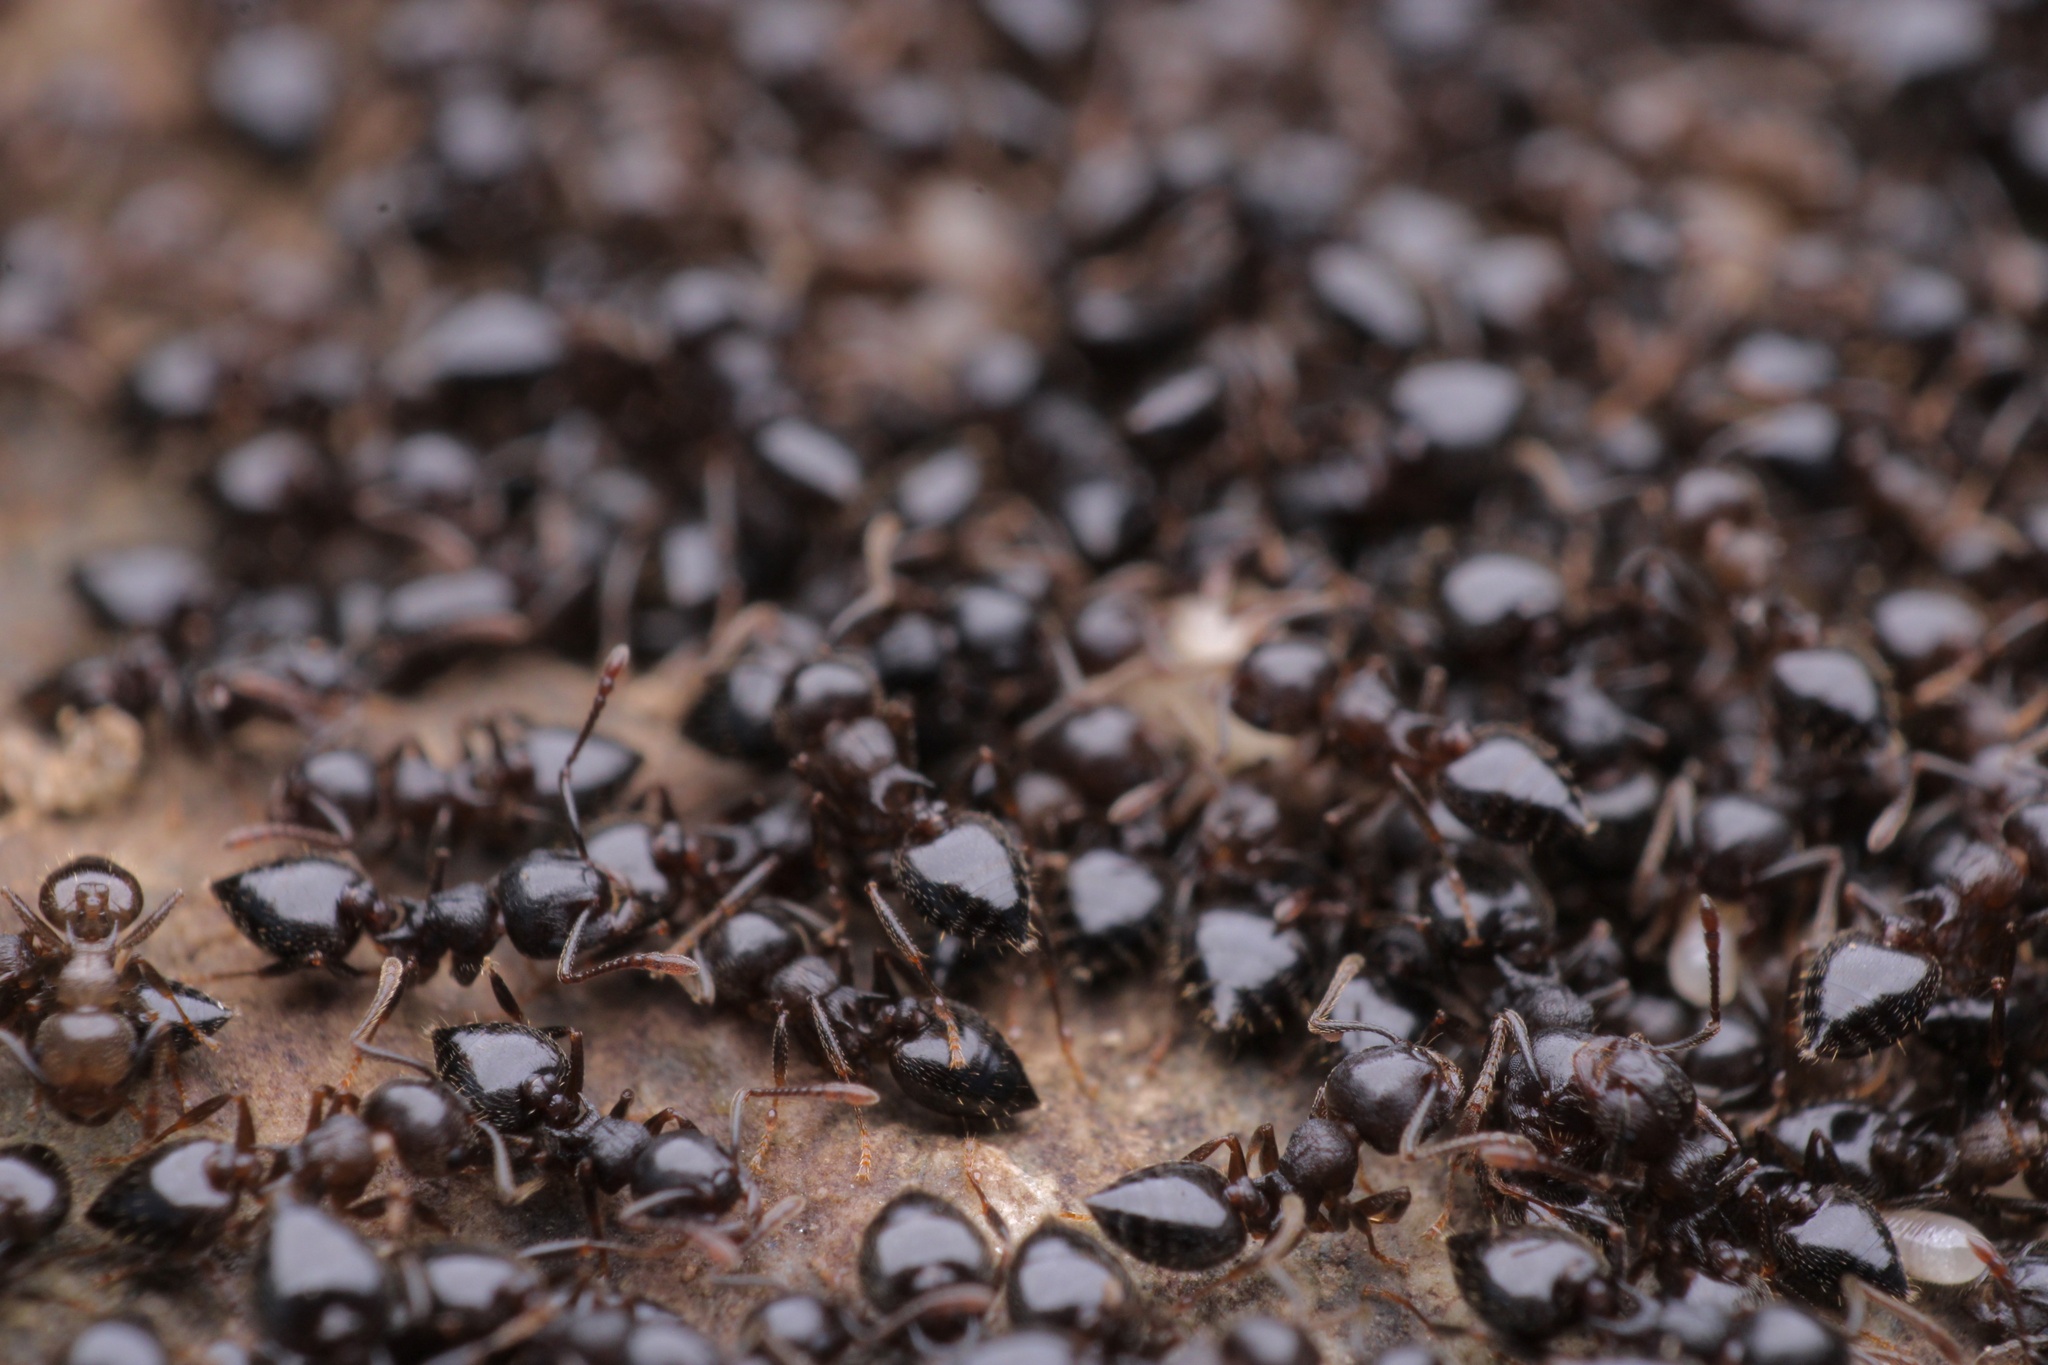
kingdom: Animalia
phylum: Arthropoda
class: Insecta
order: Hymenoptera
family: Formicidae
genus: Crematogaster
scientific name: Crematogaster lineolata
